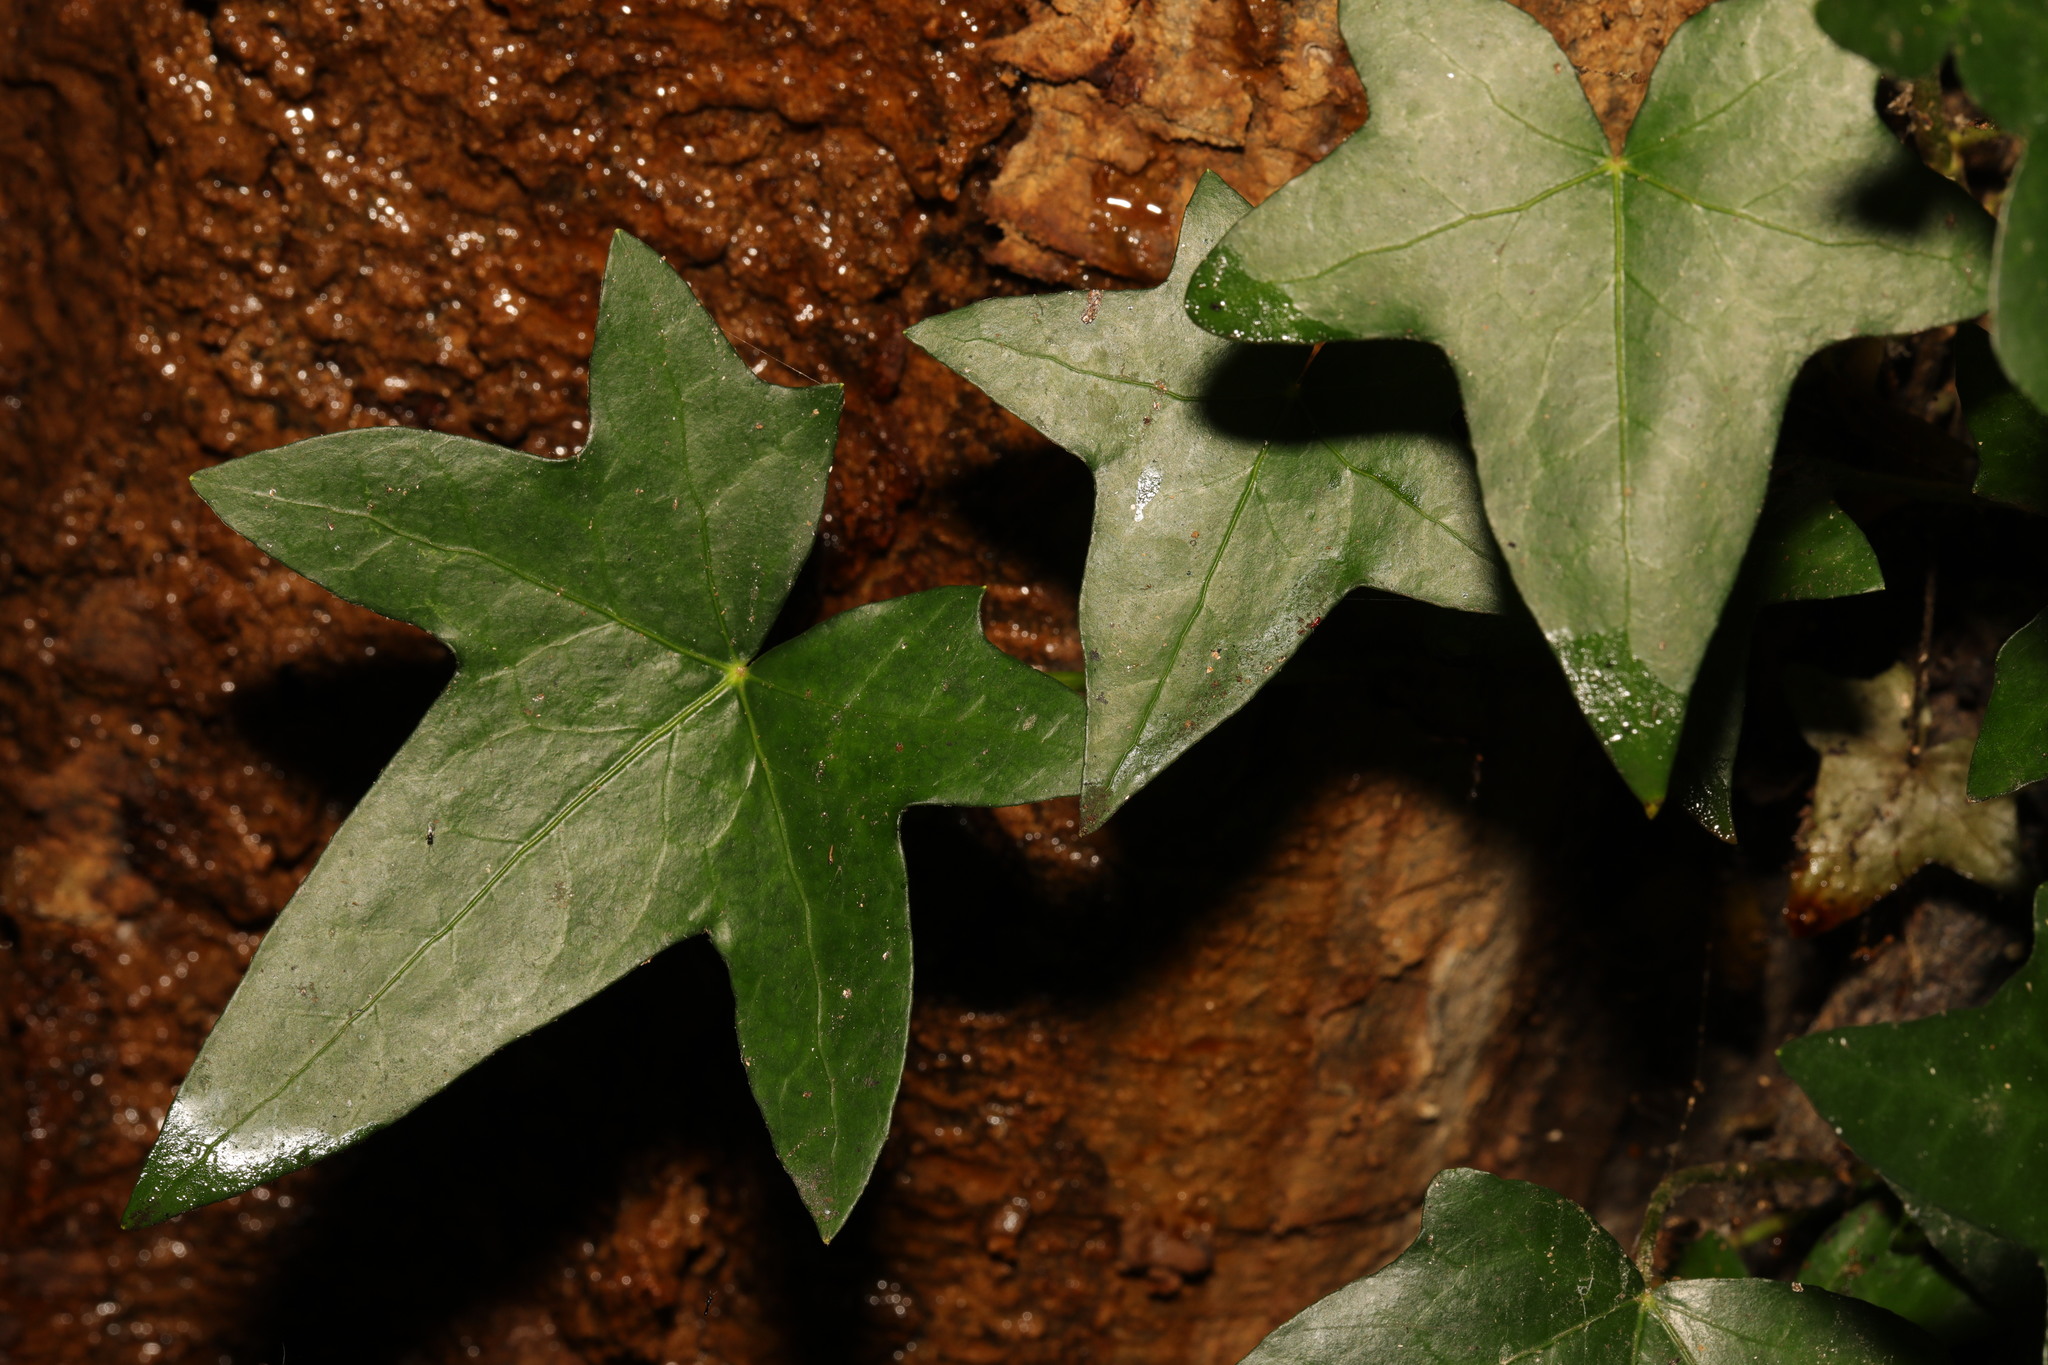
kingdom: Plantae
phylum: Tracheophyta
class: Magnoliopsida
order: Apiales
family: Araliaceae
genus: Hedera
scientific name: Hedera helix
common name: Ivy
